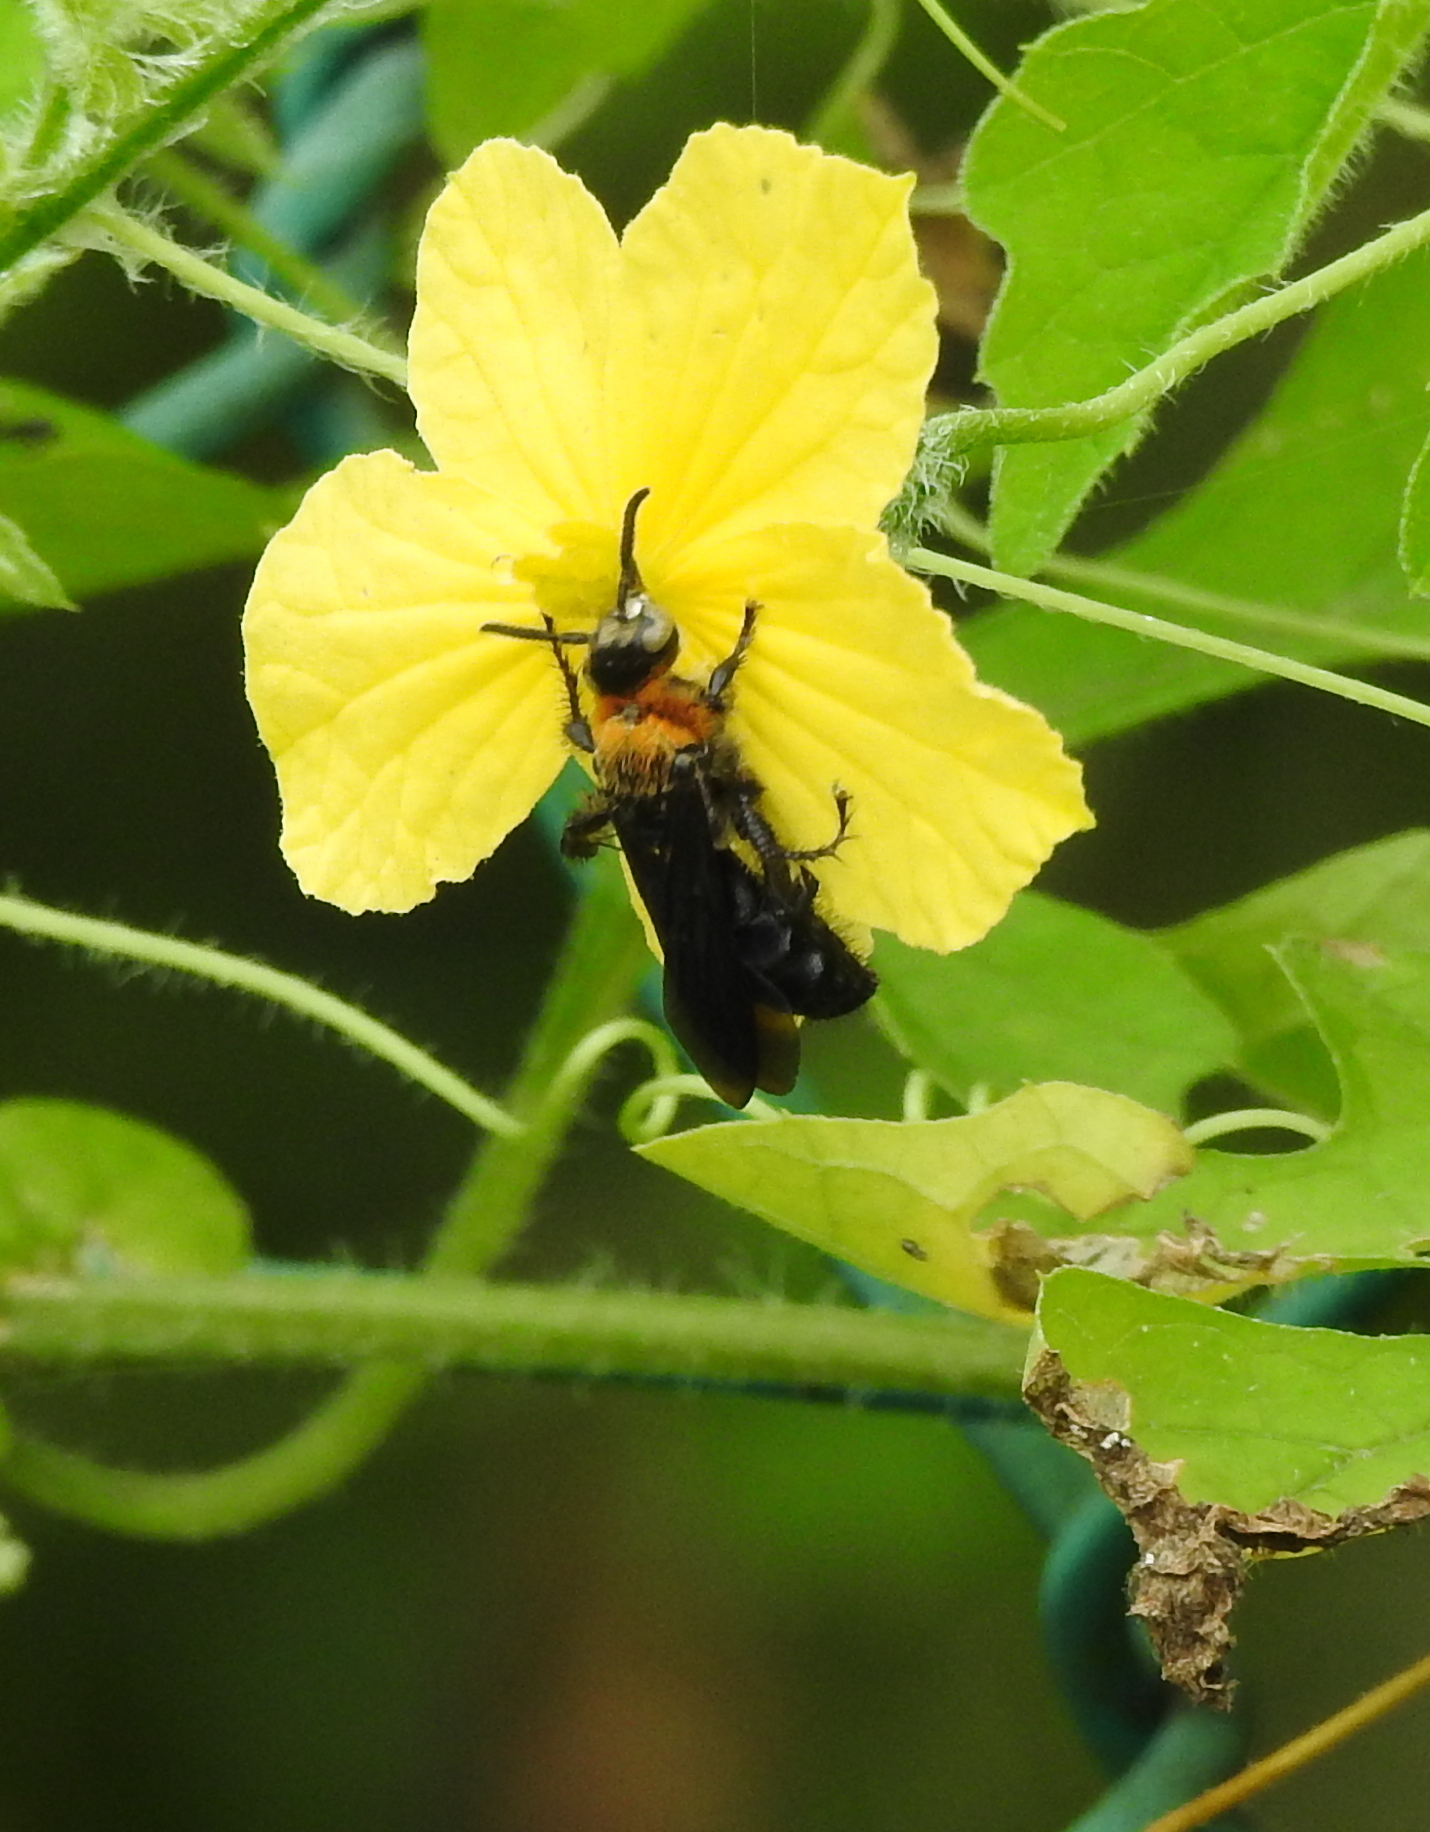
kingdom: Animalia
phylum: Arthropoda
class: Insecta
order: Hymenoptera
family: Scoliidae
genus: Campsomeriella
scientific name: Campsomeriella collaris
